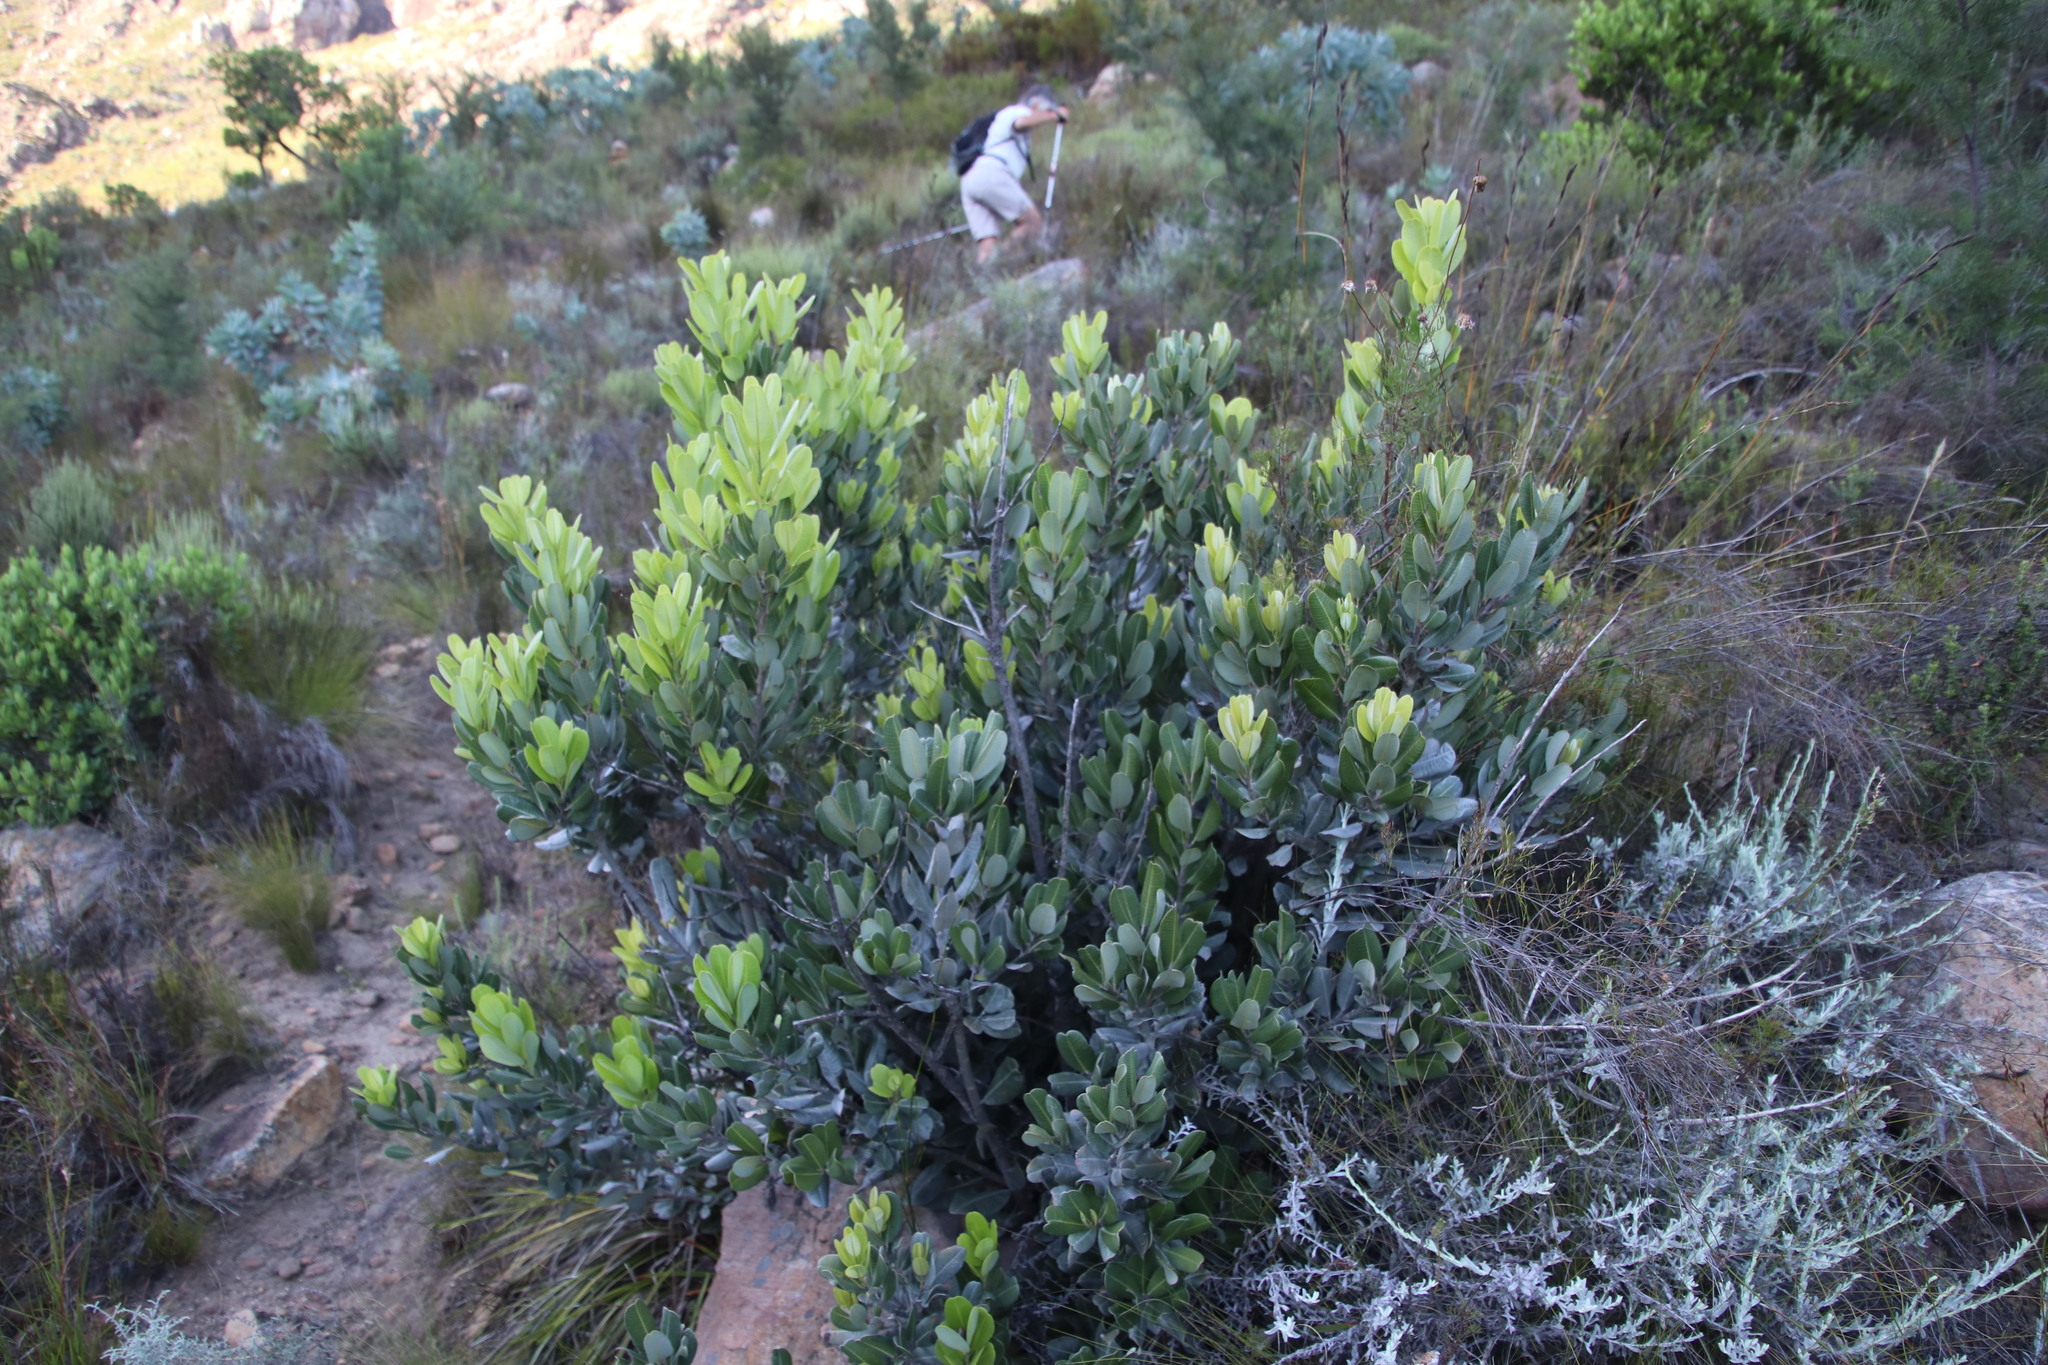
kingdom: Plantae
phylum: Tracheophyta
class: Magnoliopsida
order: Sapindales
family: Anacardiaceae
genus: Heeria
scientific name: Heeria argentea
